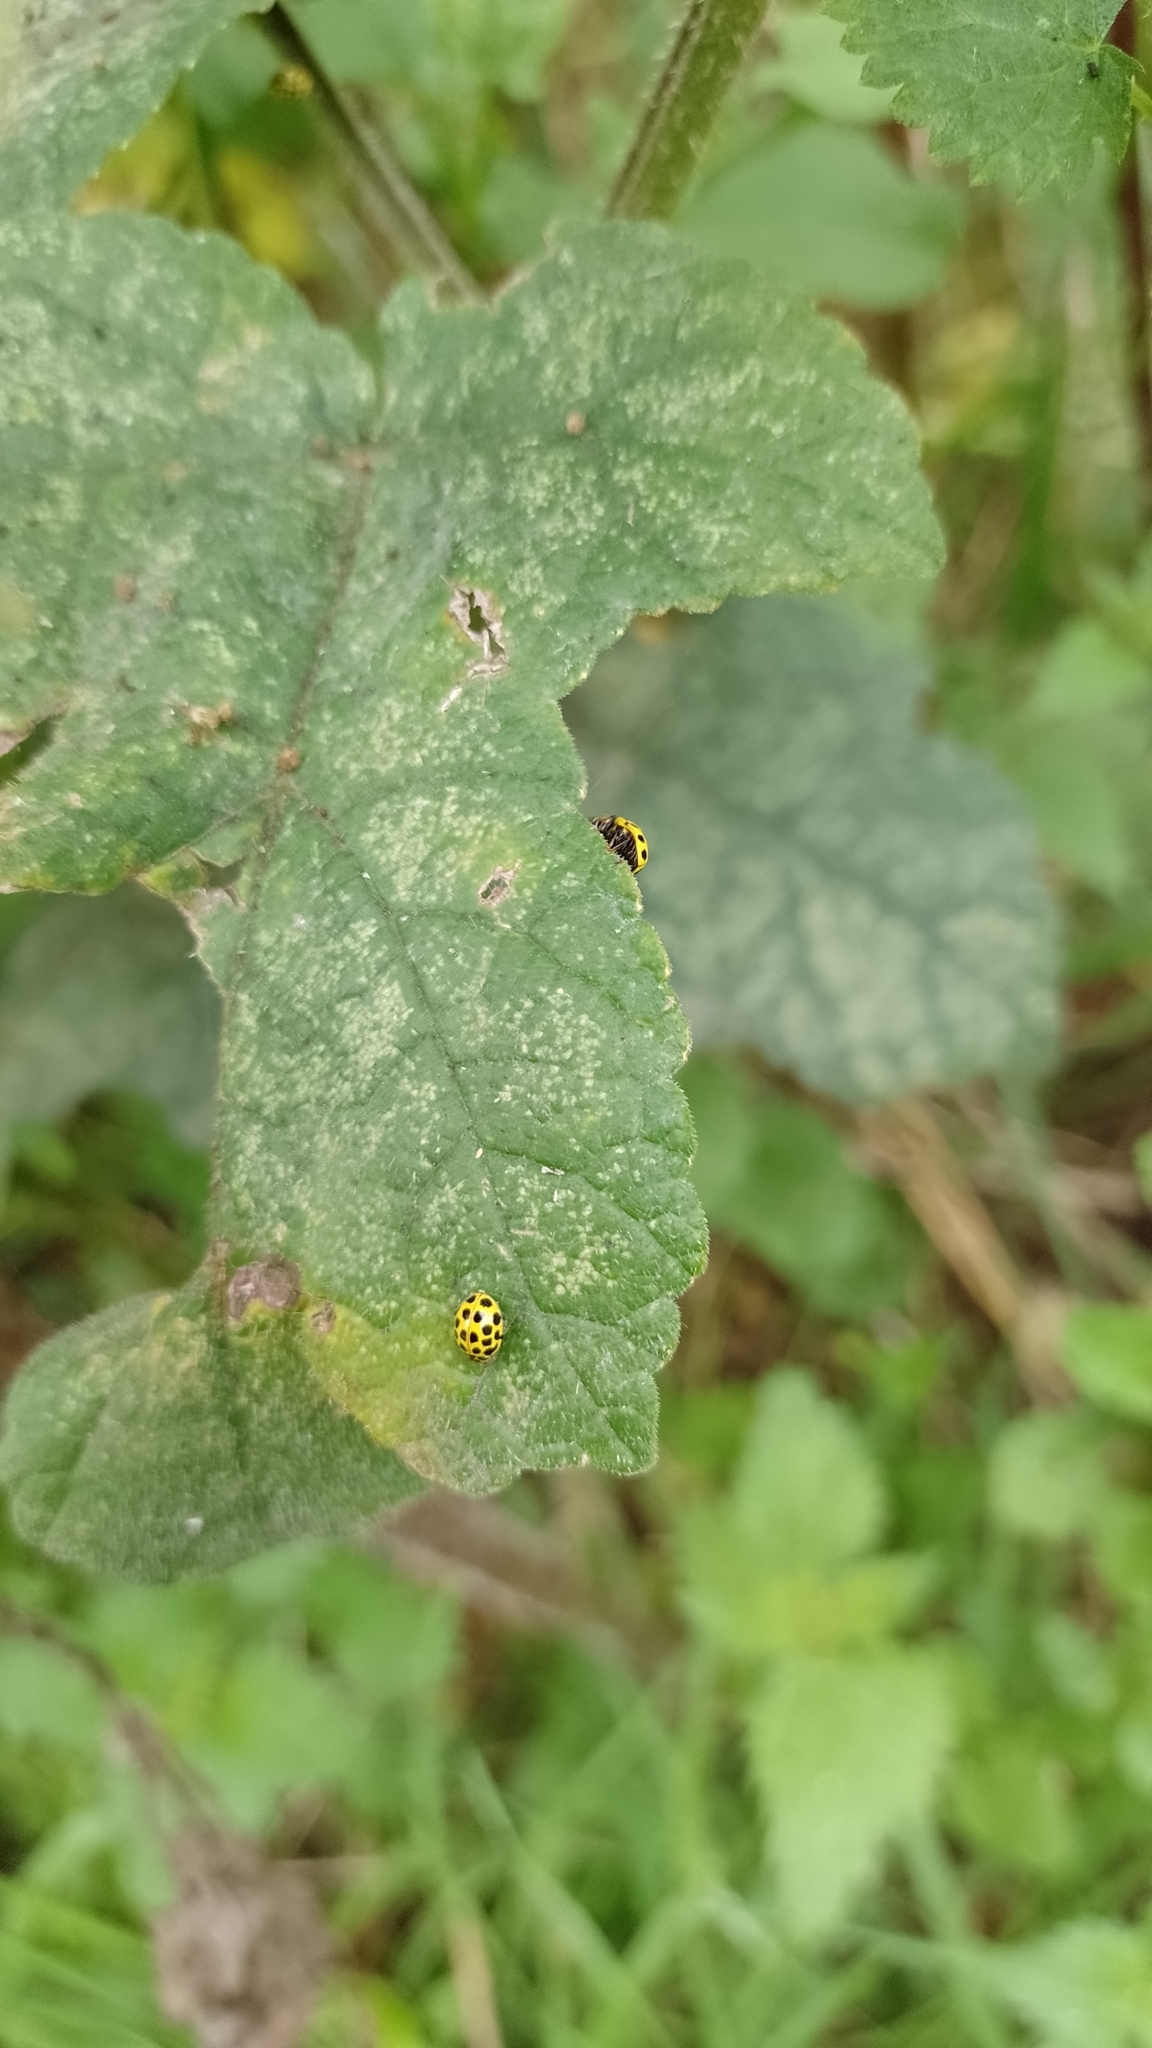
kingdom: Animalia
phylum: Arthropoda
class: Insecta
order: Coleoptera
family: Coccinellidae
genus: Psyllobora
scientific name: Psyllobora vigintiduopunctata
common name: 22-spot ladybird
